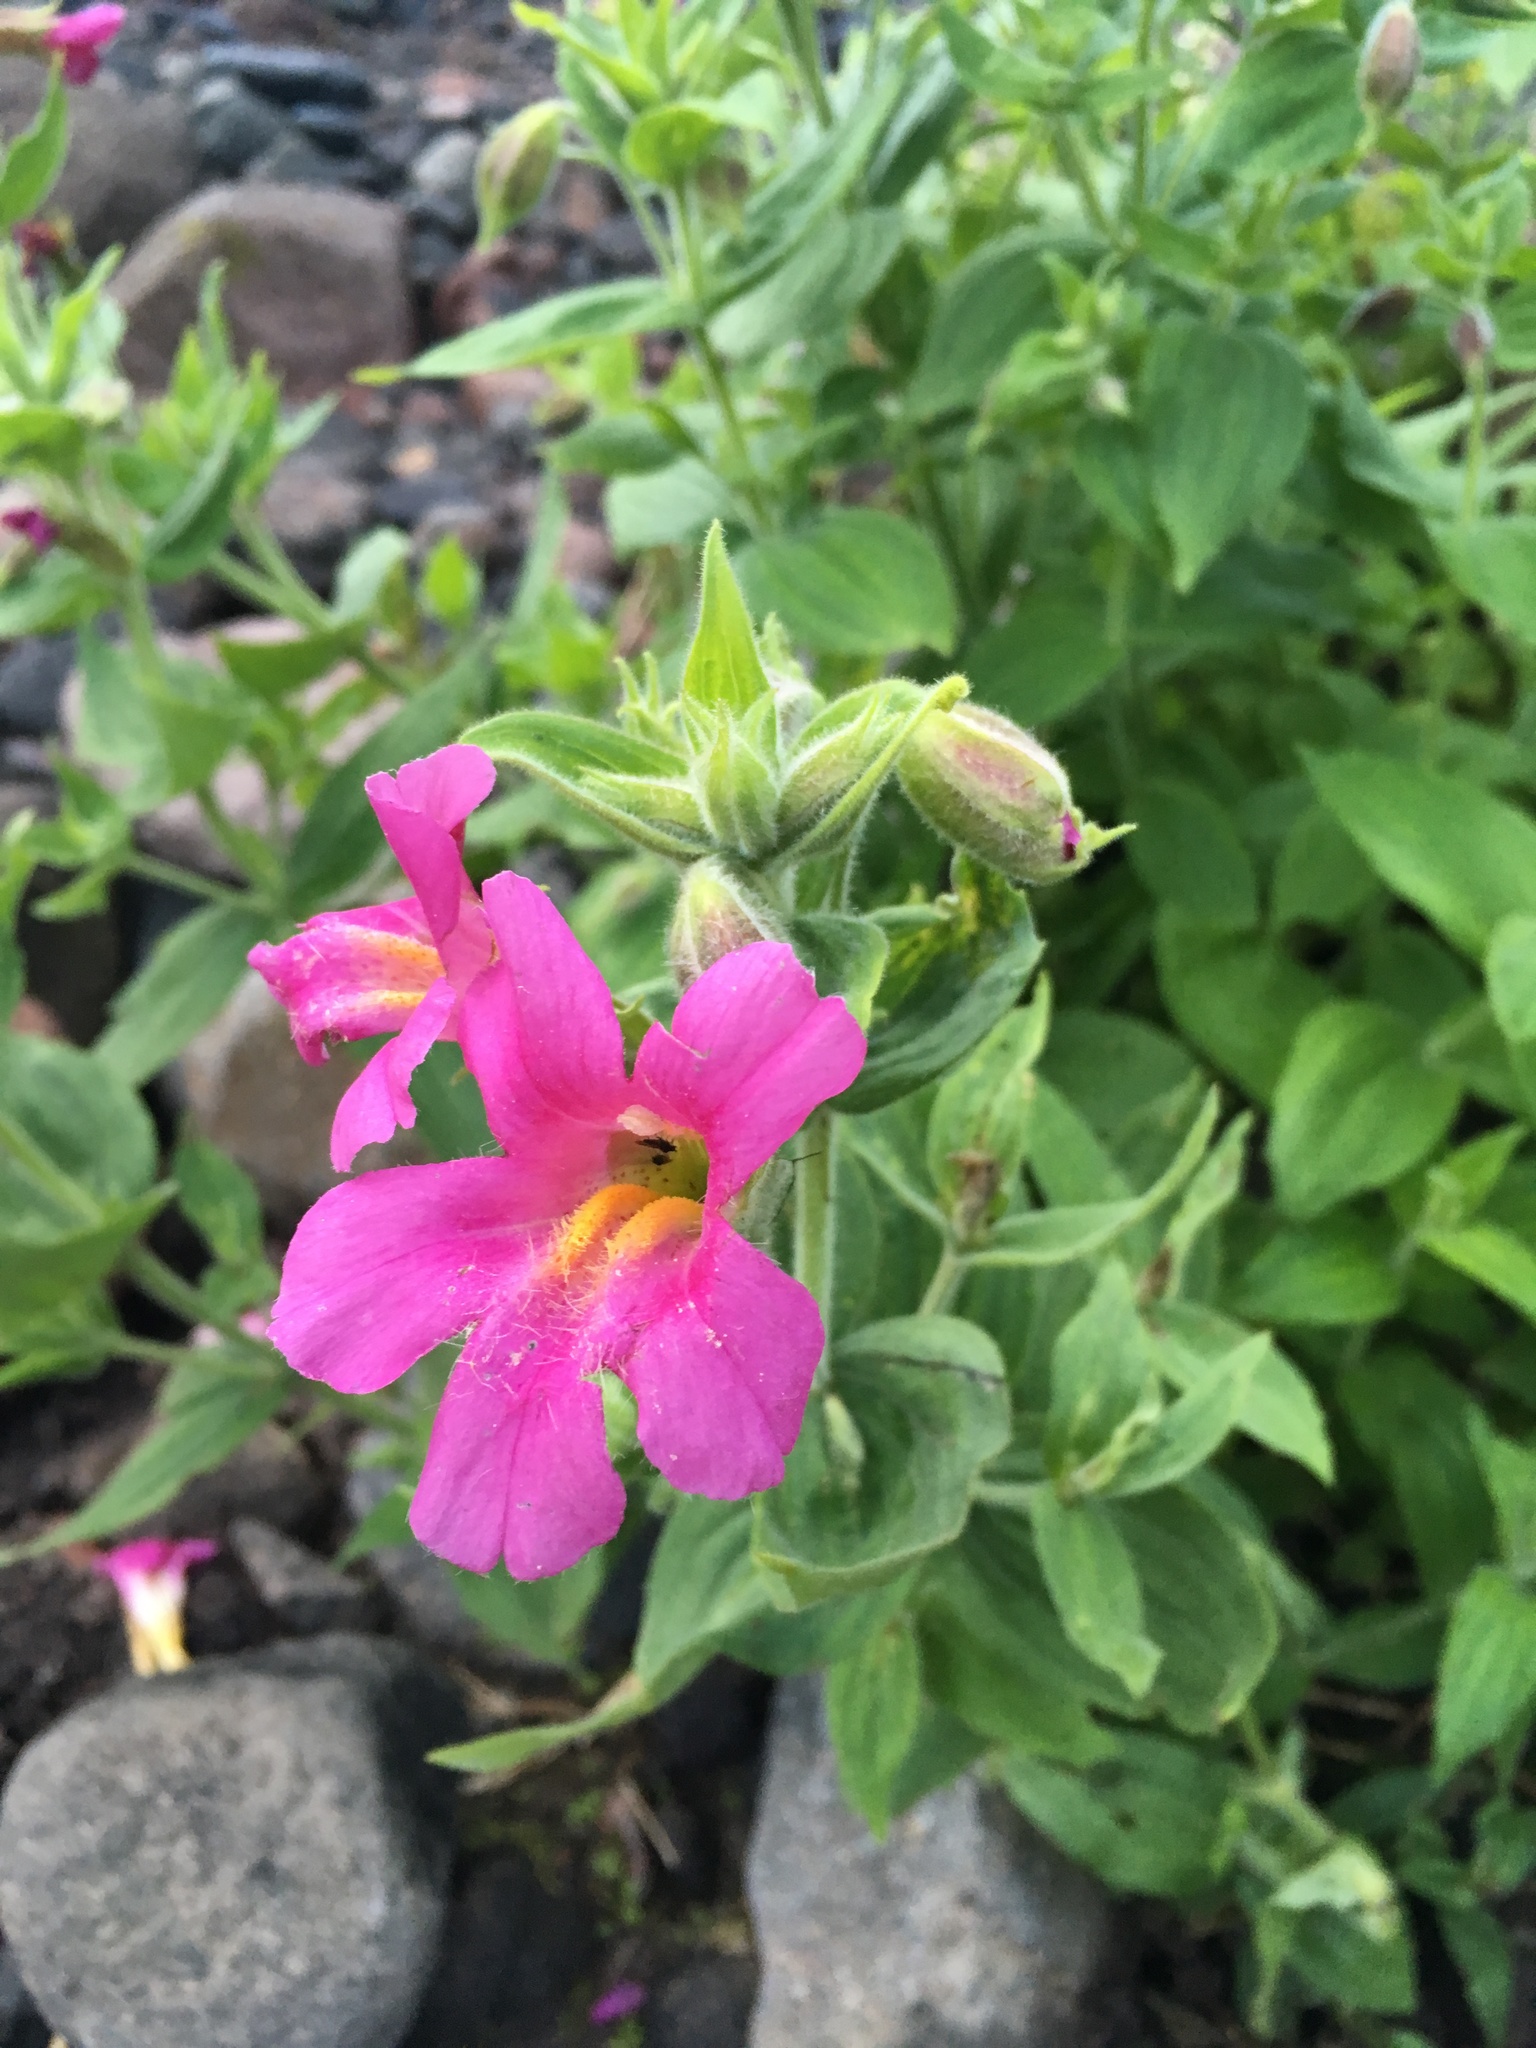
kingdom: Plantae
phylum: Tracheophyta
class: Magnoliopsida
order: Lamiales
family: Phrymaceae
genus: Erythranthe
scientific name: Erythranthe lewisii
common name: Lewis's monkey-flower
